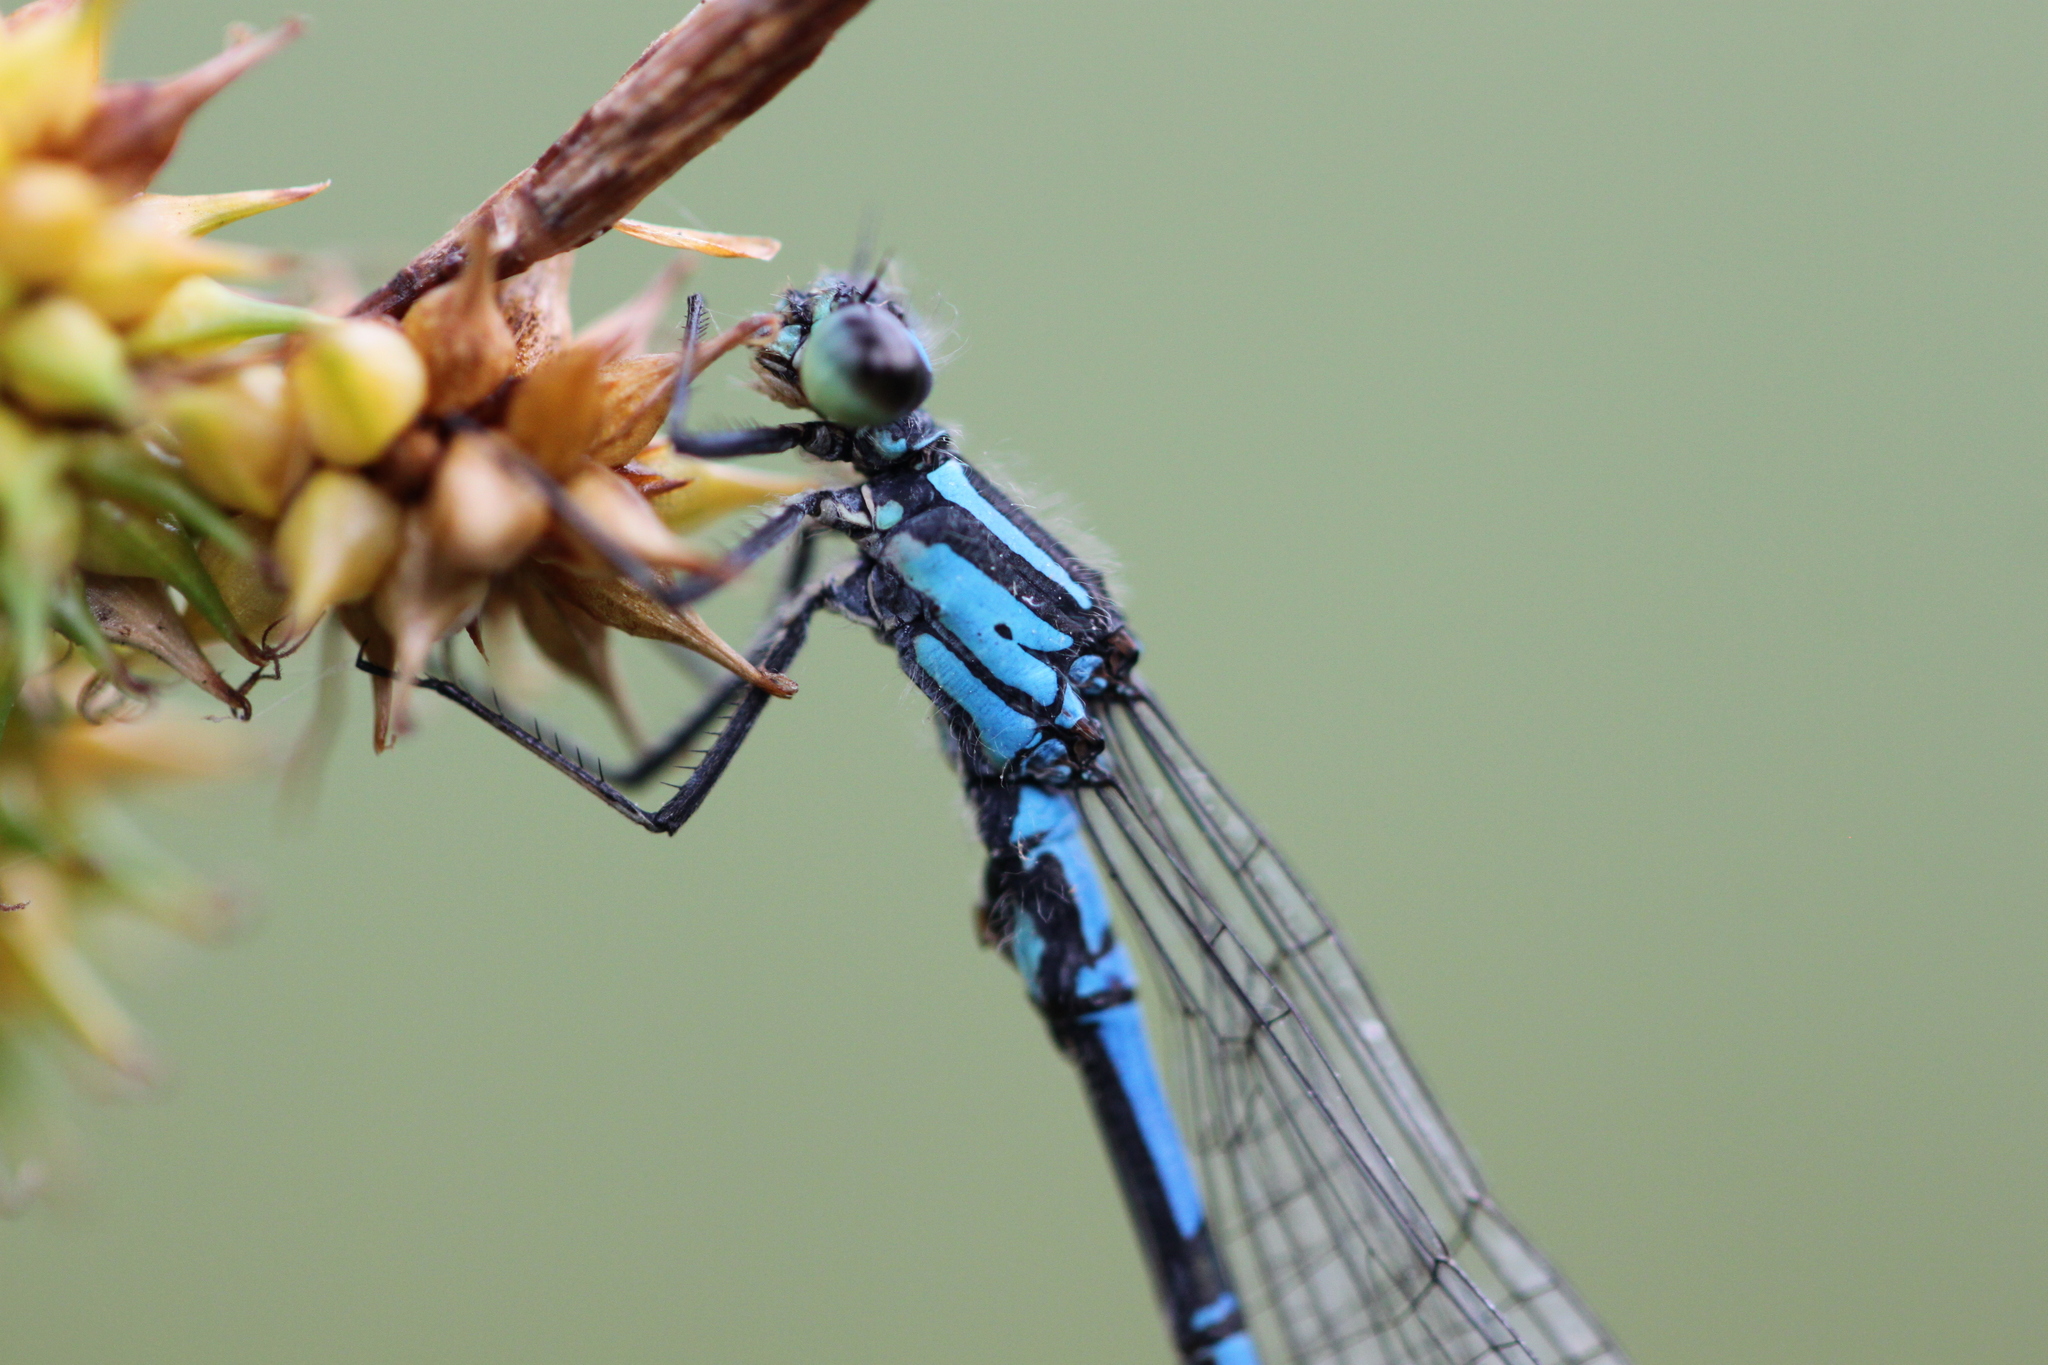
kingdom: Animalia
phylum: Arthropoda
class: Insecta
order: Odonata
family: Coenagrionidae
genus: Coenagrion
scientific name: Coenagrion hylas
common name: Frey's damselfly
